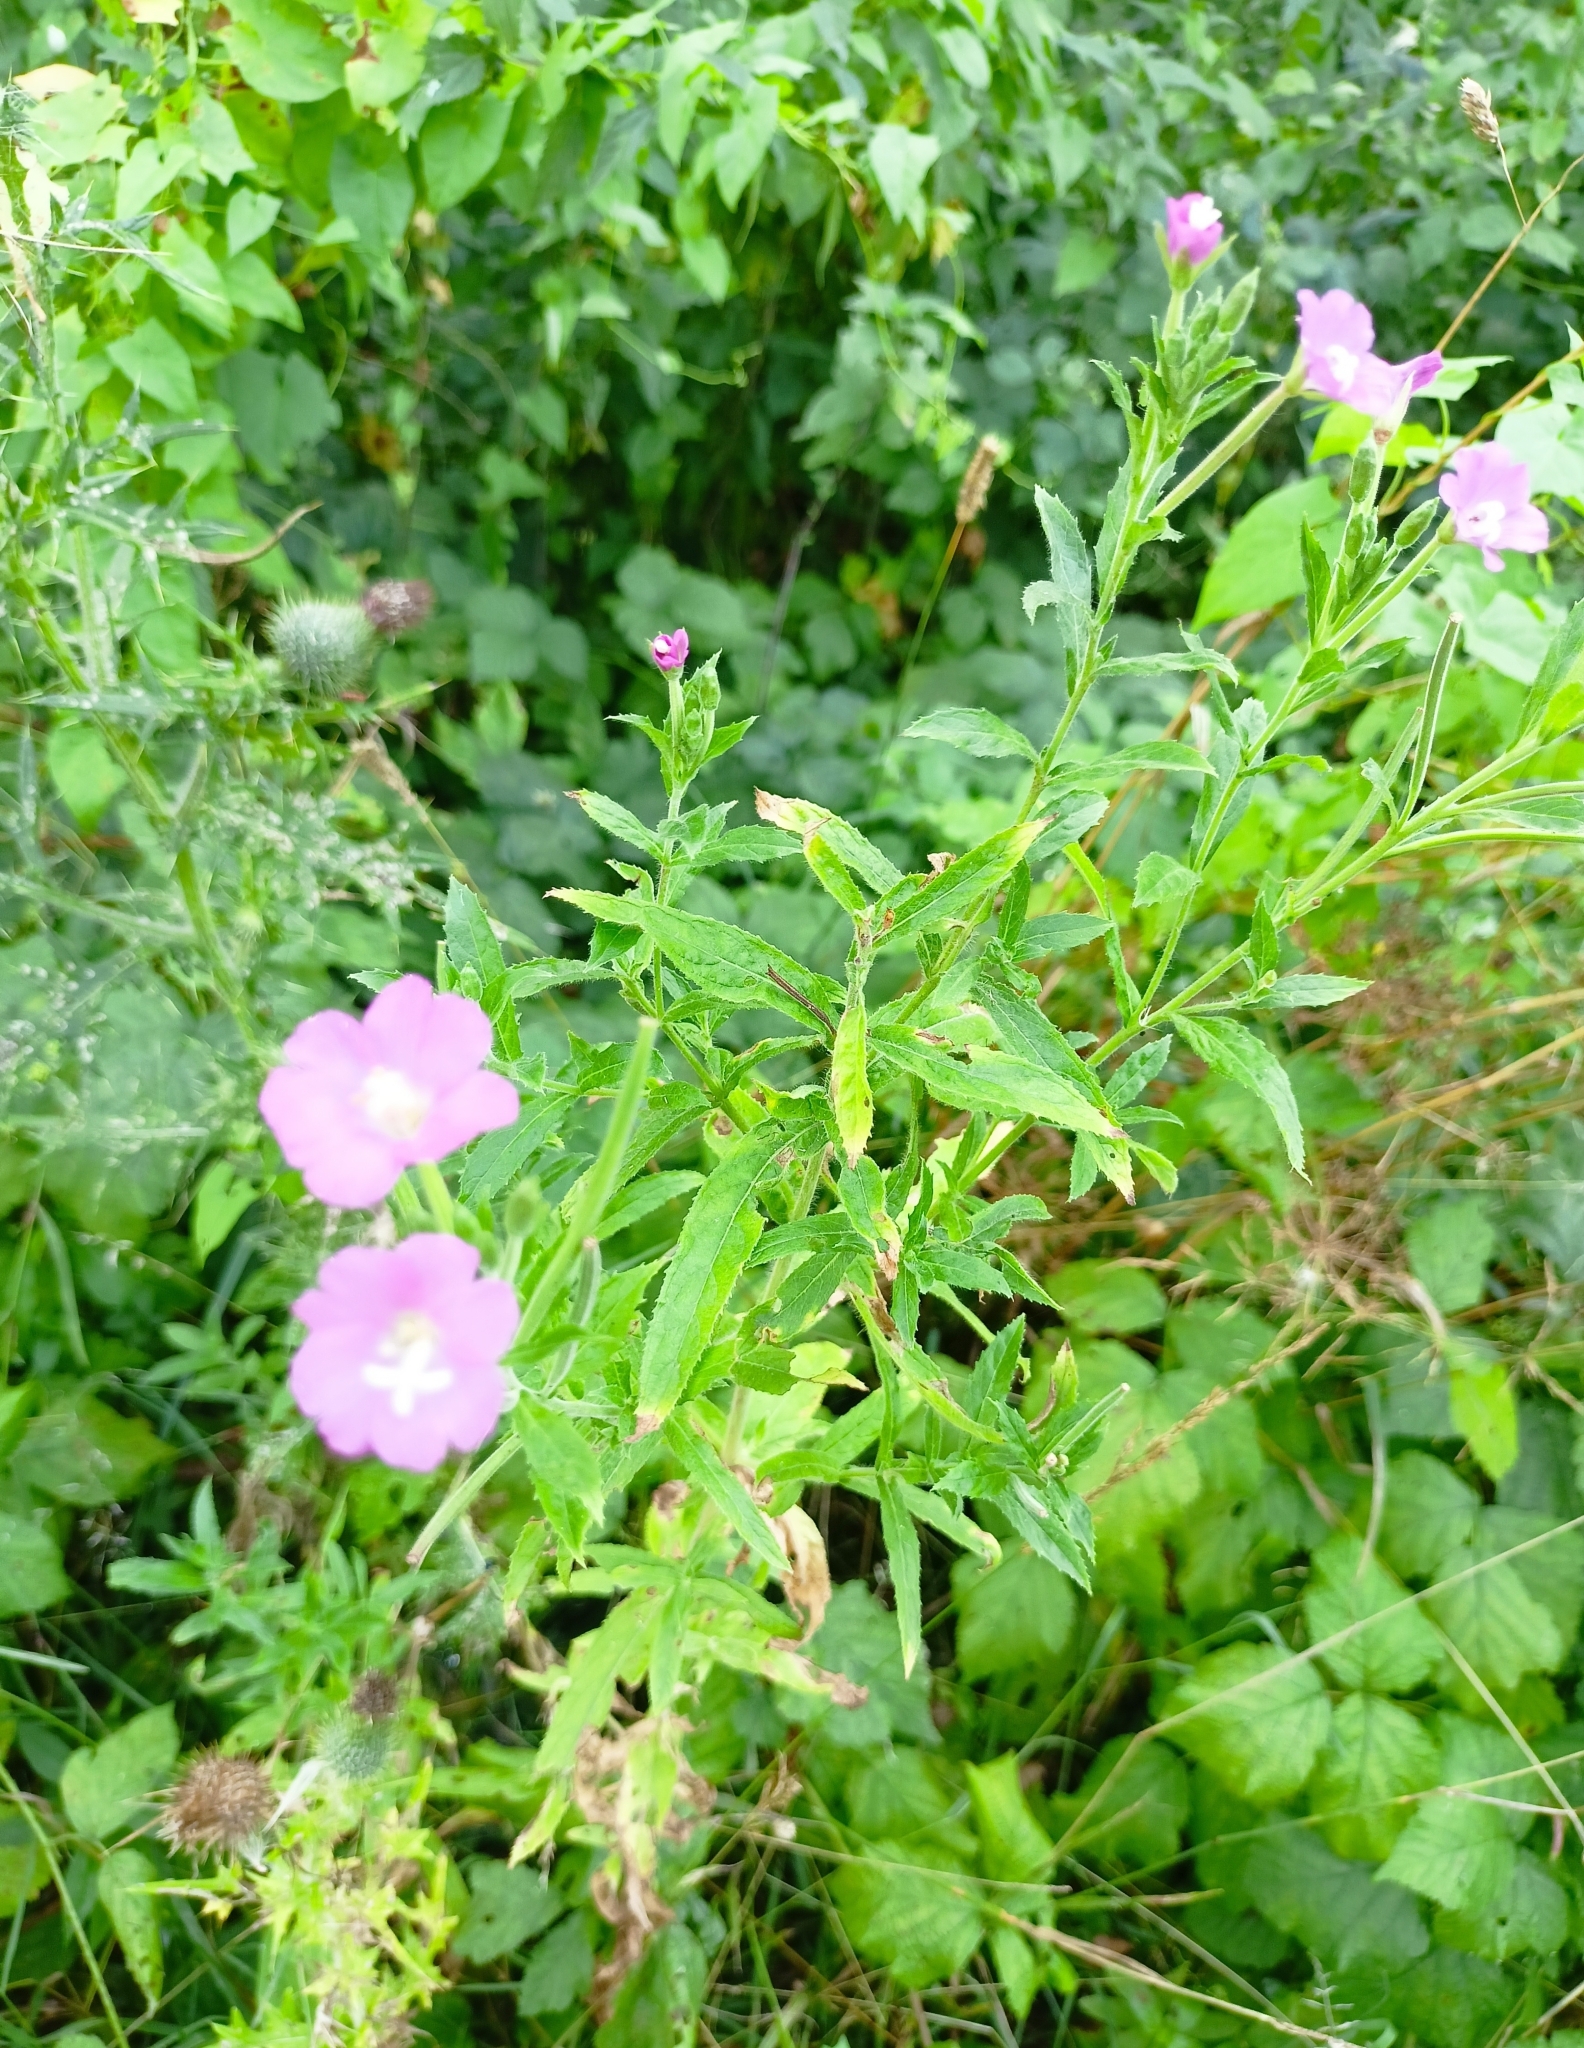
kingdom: Plantae
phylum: Tracheophyta
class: Magnoliopsida
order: Myrtales
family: Onagraceae
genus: Epilobium
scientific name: Epilobium hirsutum
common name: Great willowherb
